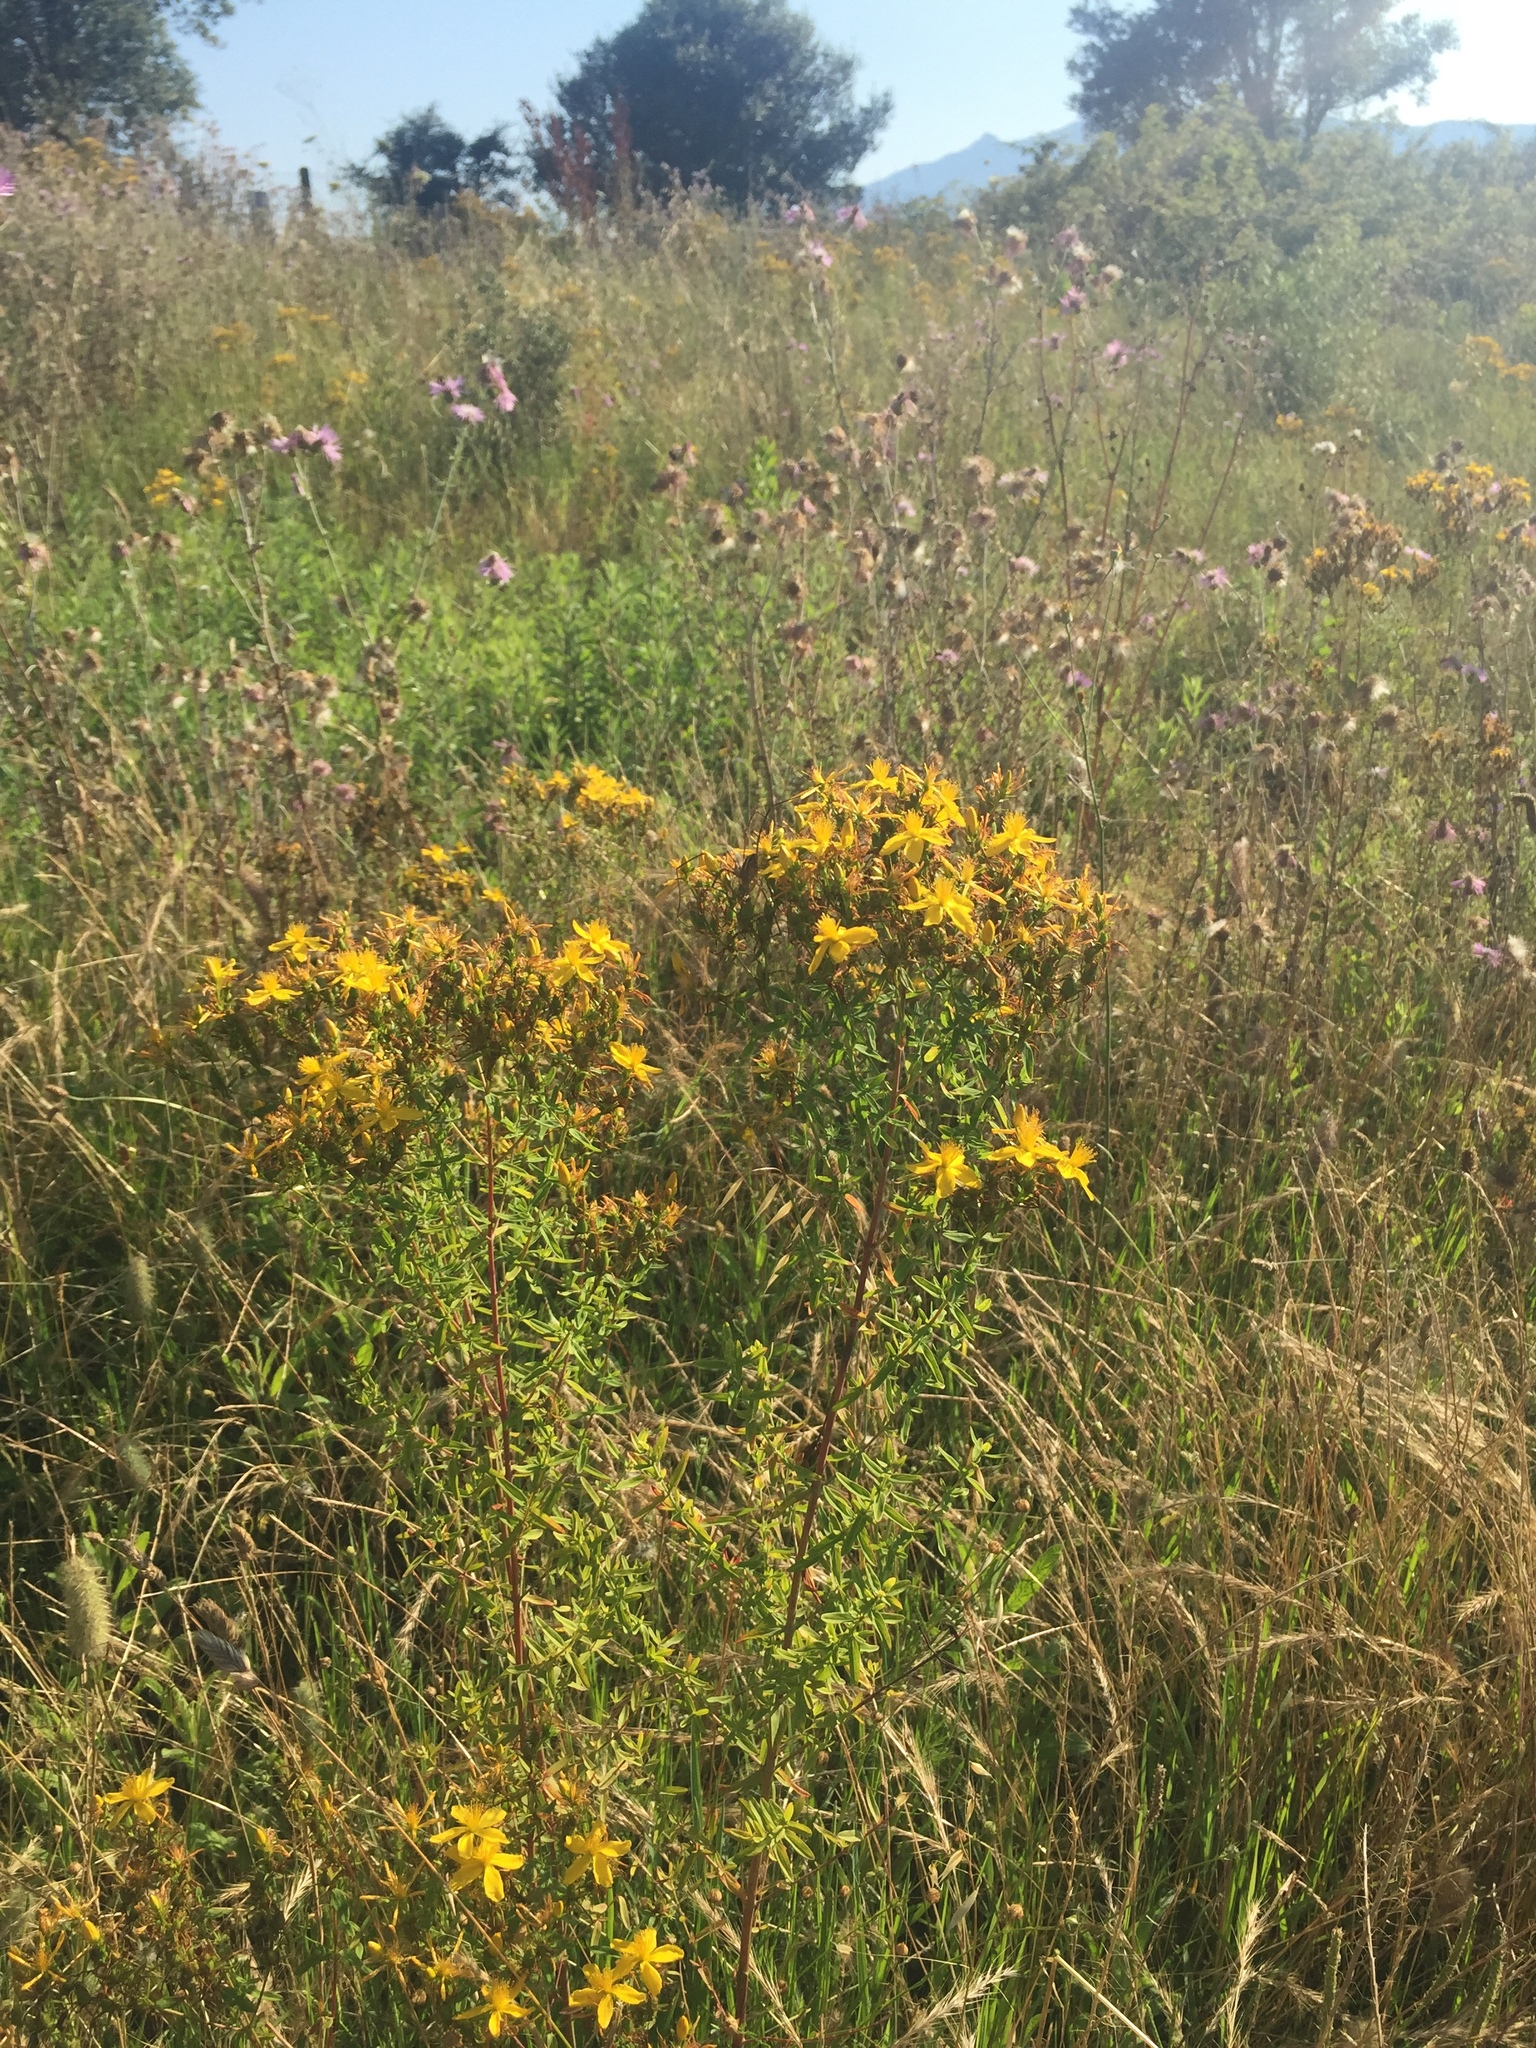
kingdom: Plantae
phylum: Tracheophyta
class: Magnoliopsida
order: Malpighiales
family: Hypericaceae
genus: Hypericum
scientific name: Hypericum perforatum
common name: Common st. johnswort
